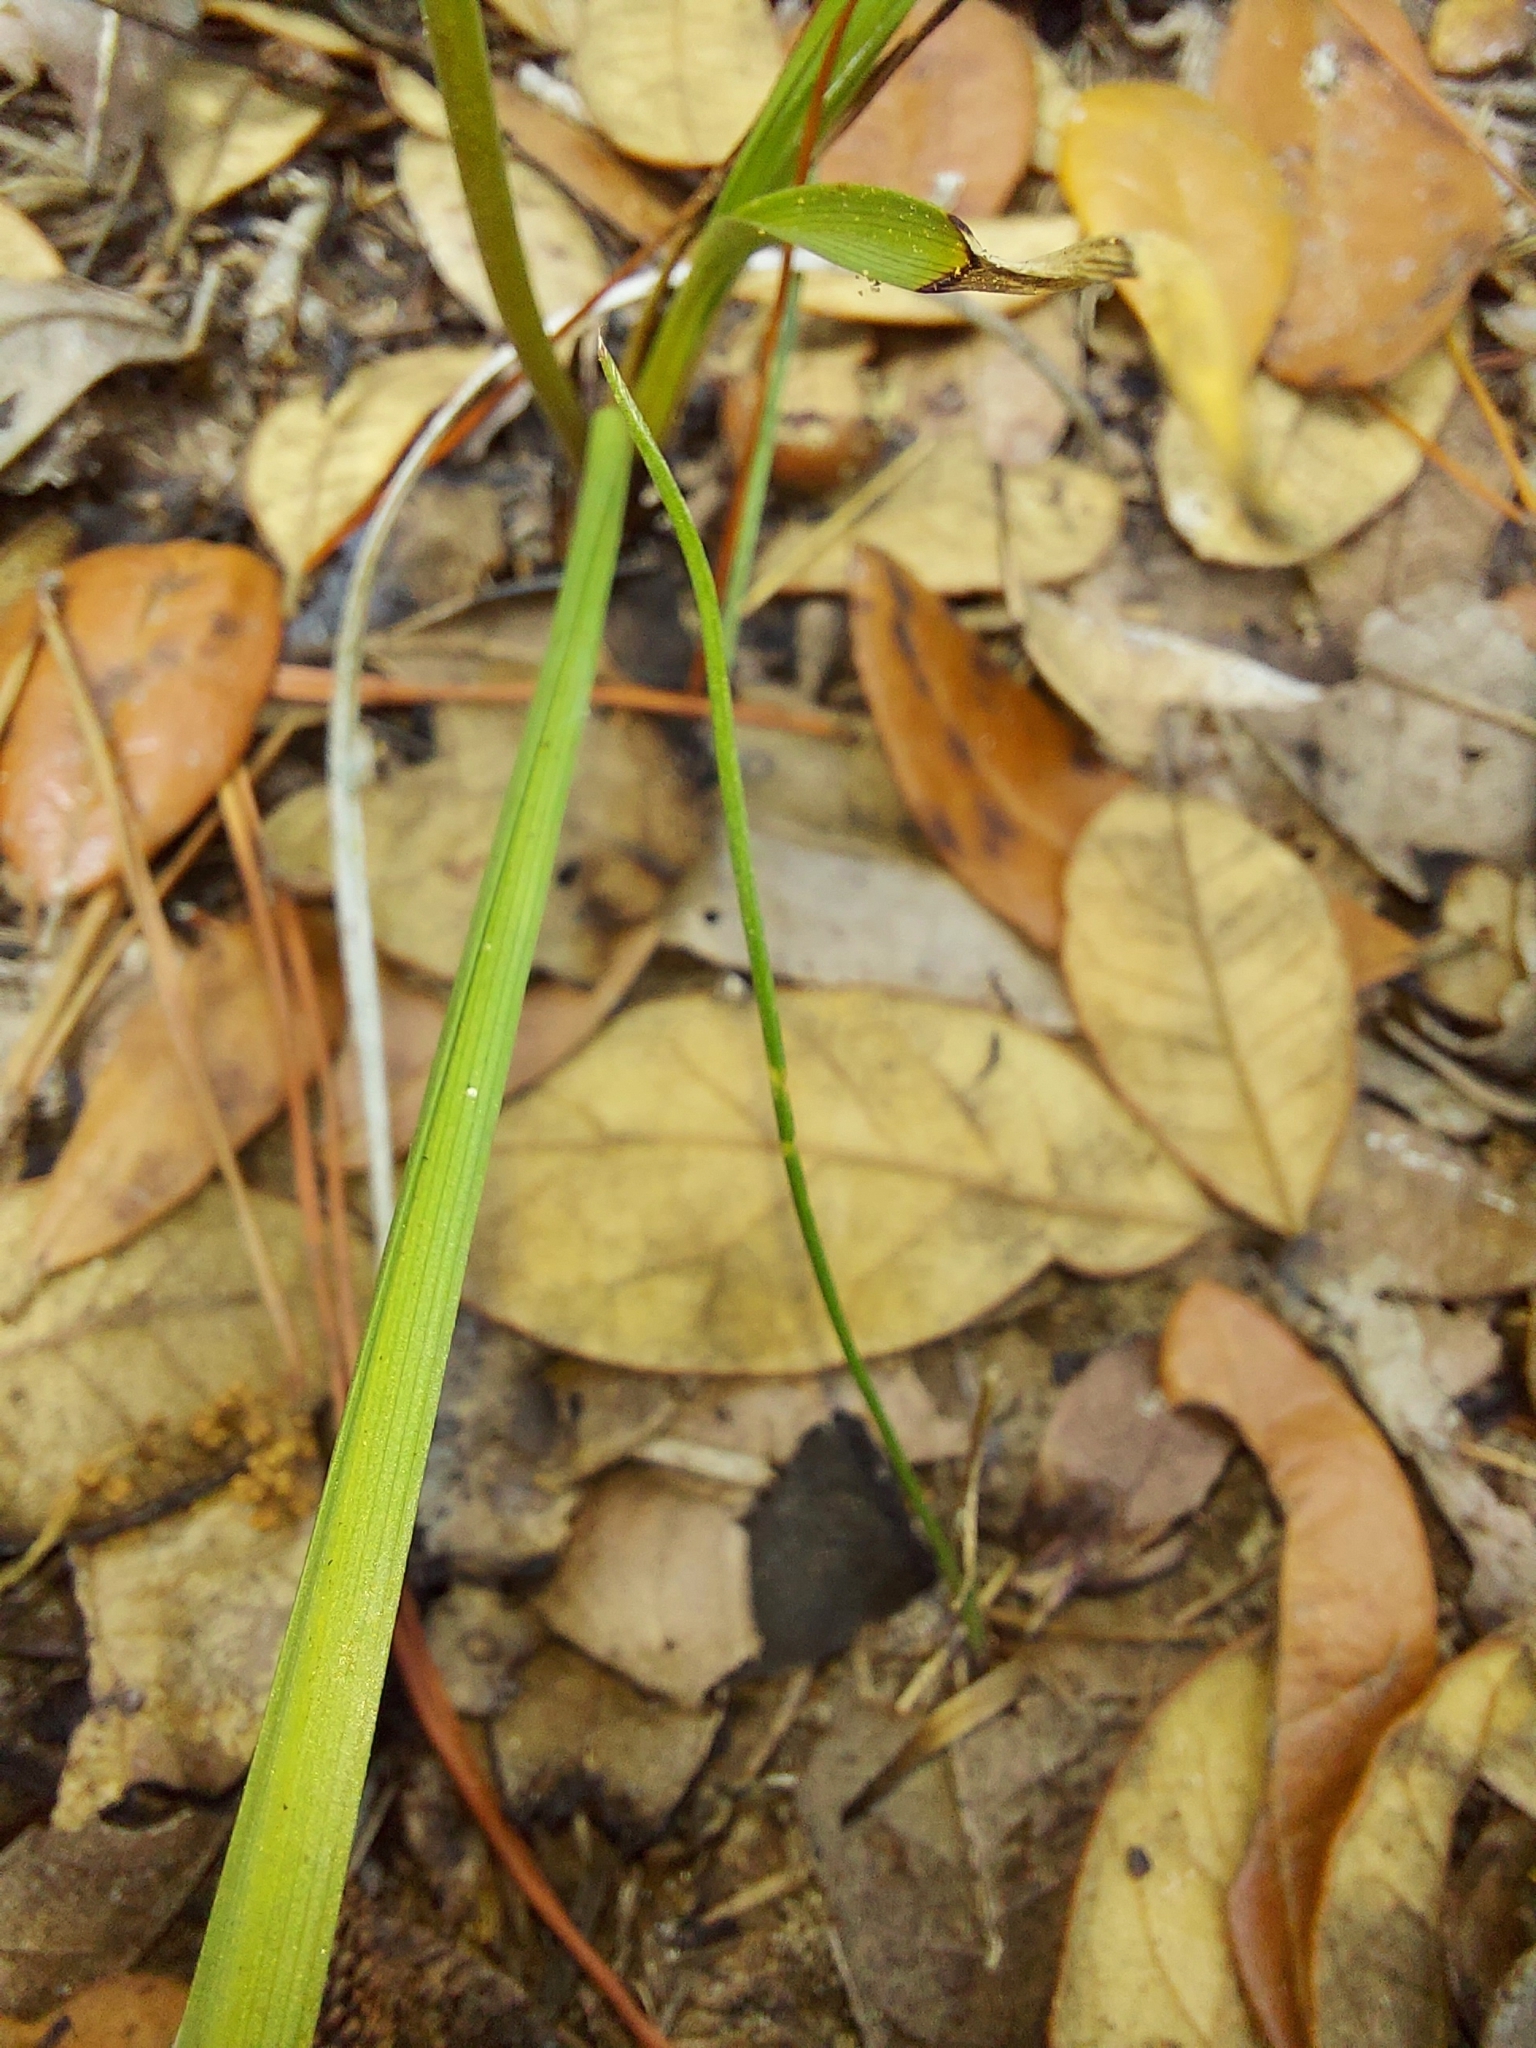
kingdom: Plantae
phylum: Tracheophyta
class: Liliopsida
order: Liliales
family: Melanthiaceae
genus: Schoenocaulon
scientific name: Schoenocaulon dubium
